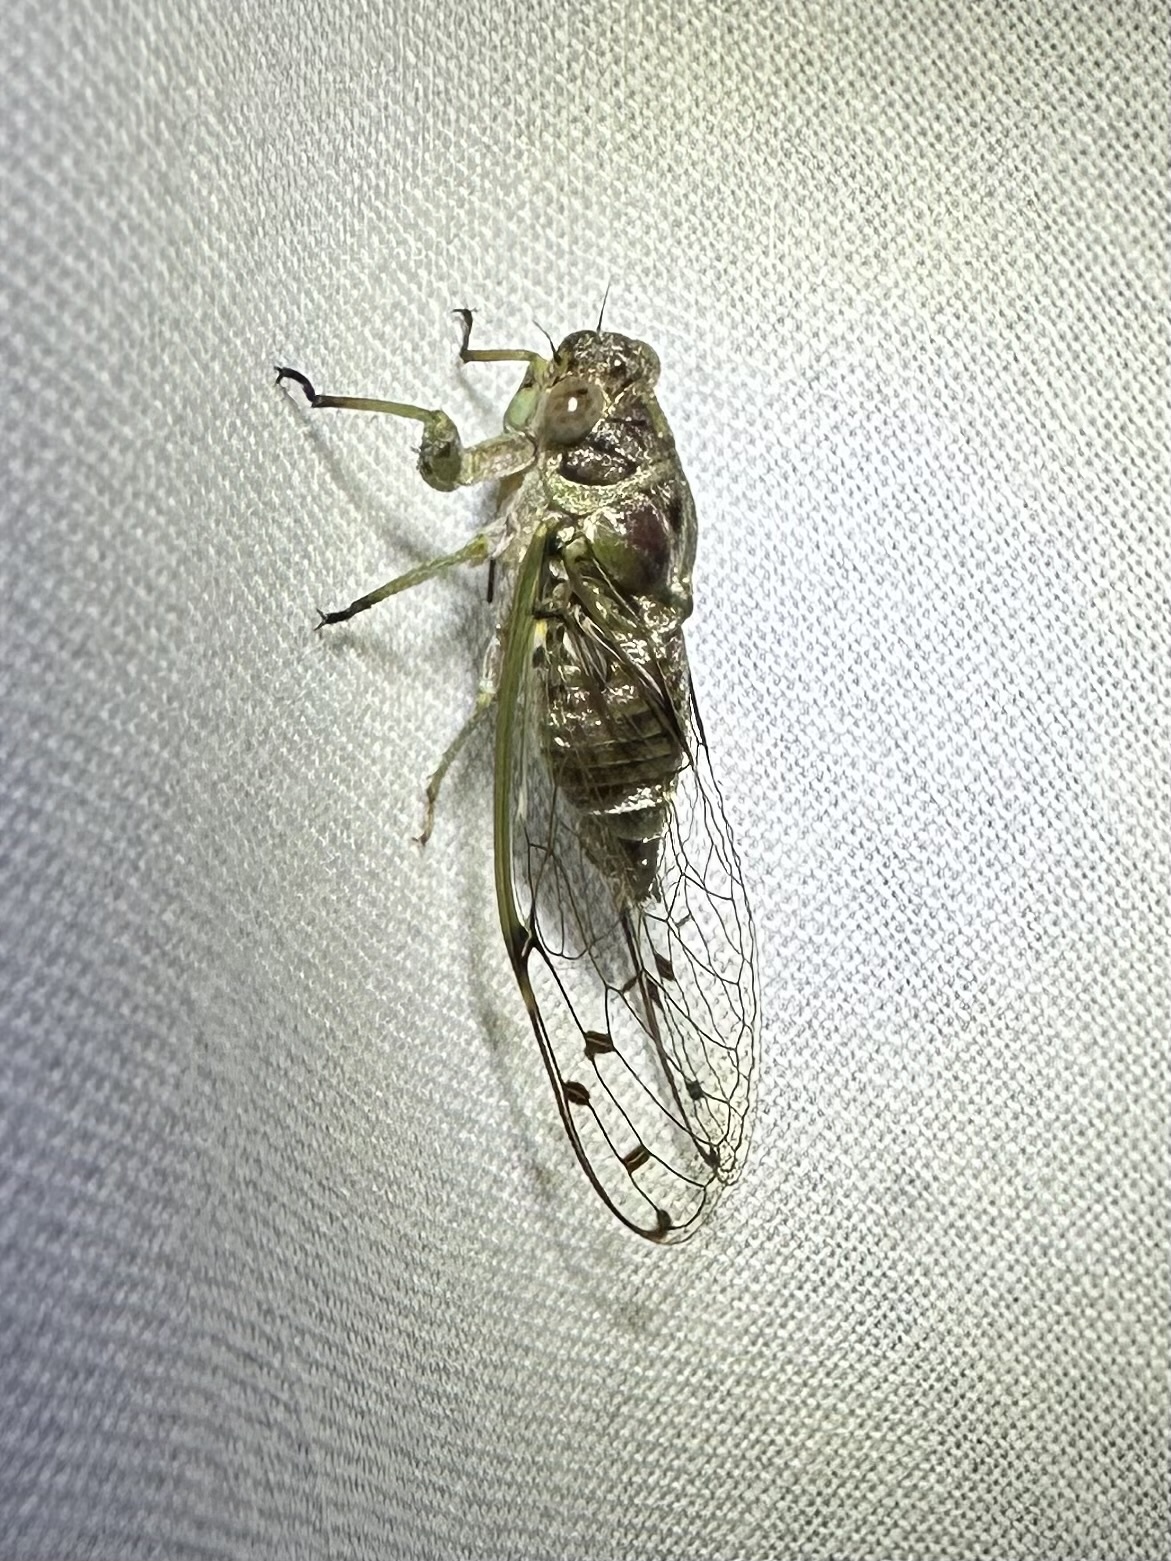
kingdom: Animalia
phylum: Arthropoda
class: Insecta
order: Hemiptera
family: Cicadidae
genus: Procollina
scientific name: Procollina quadrimaculata
